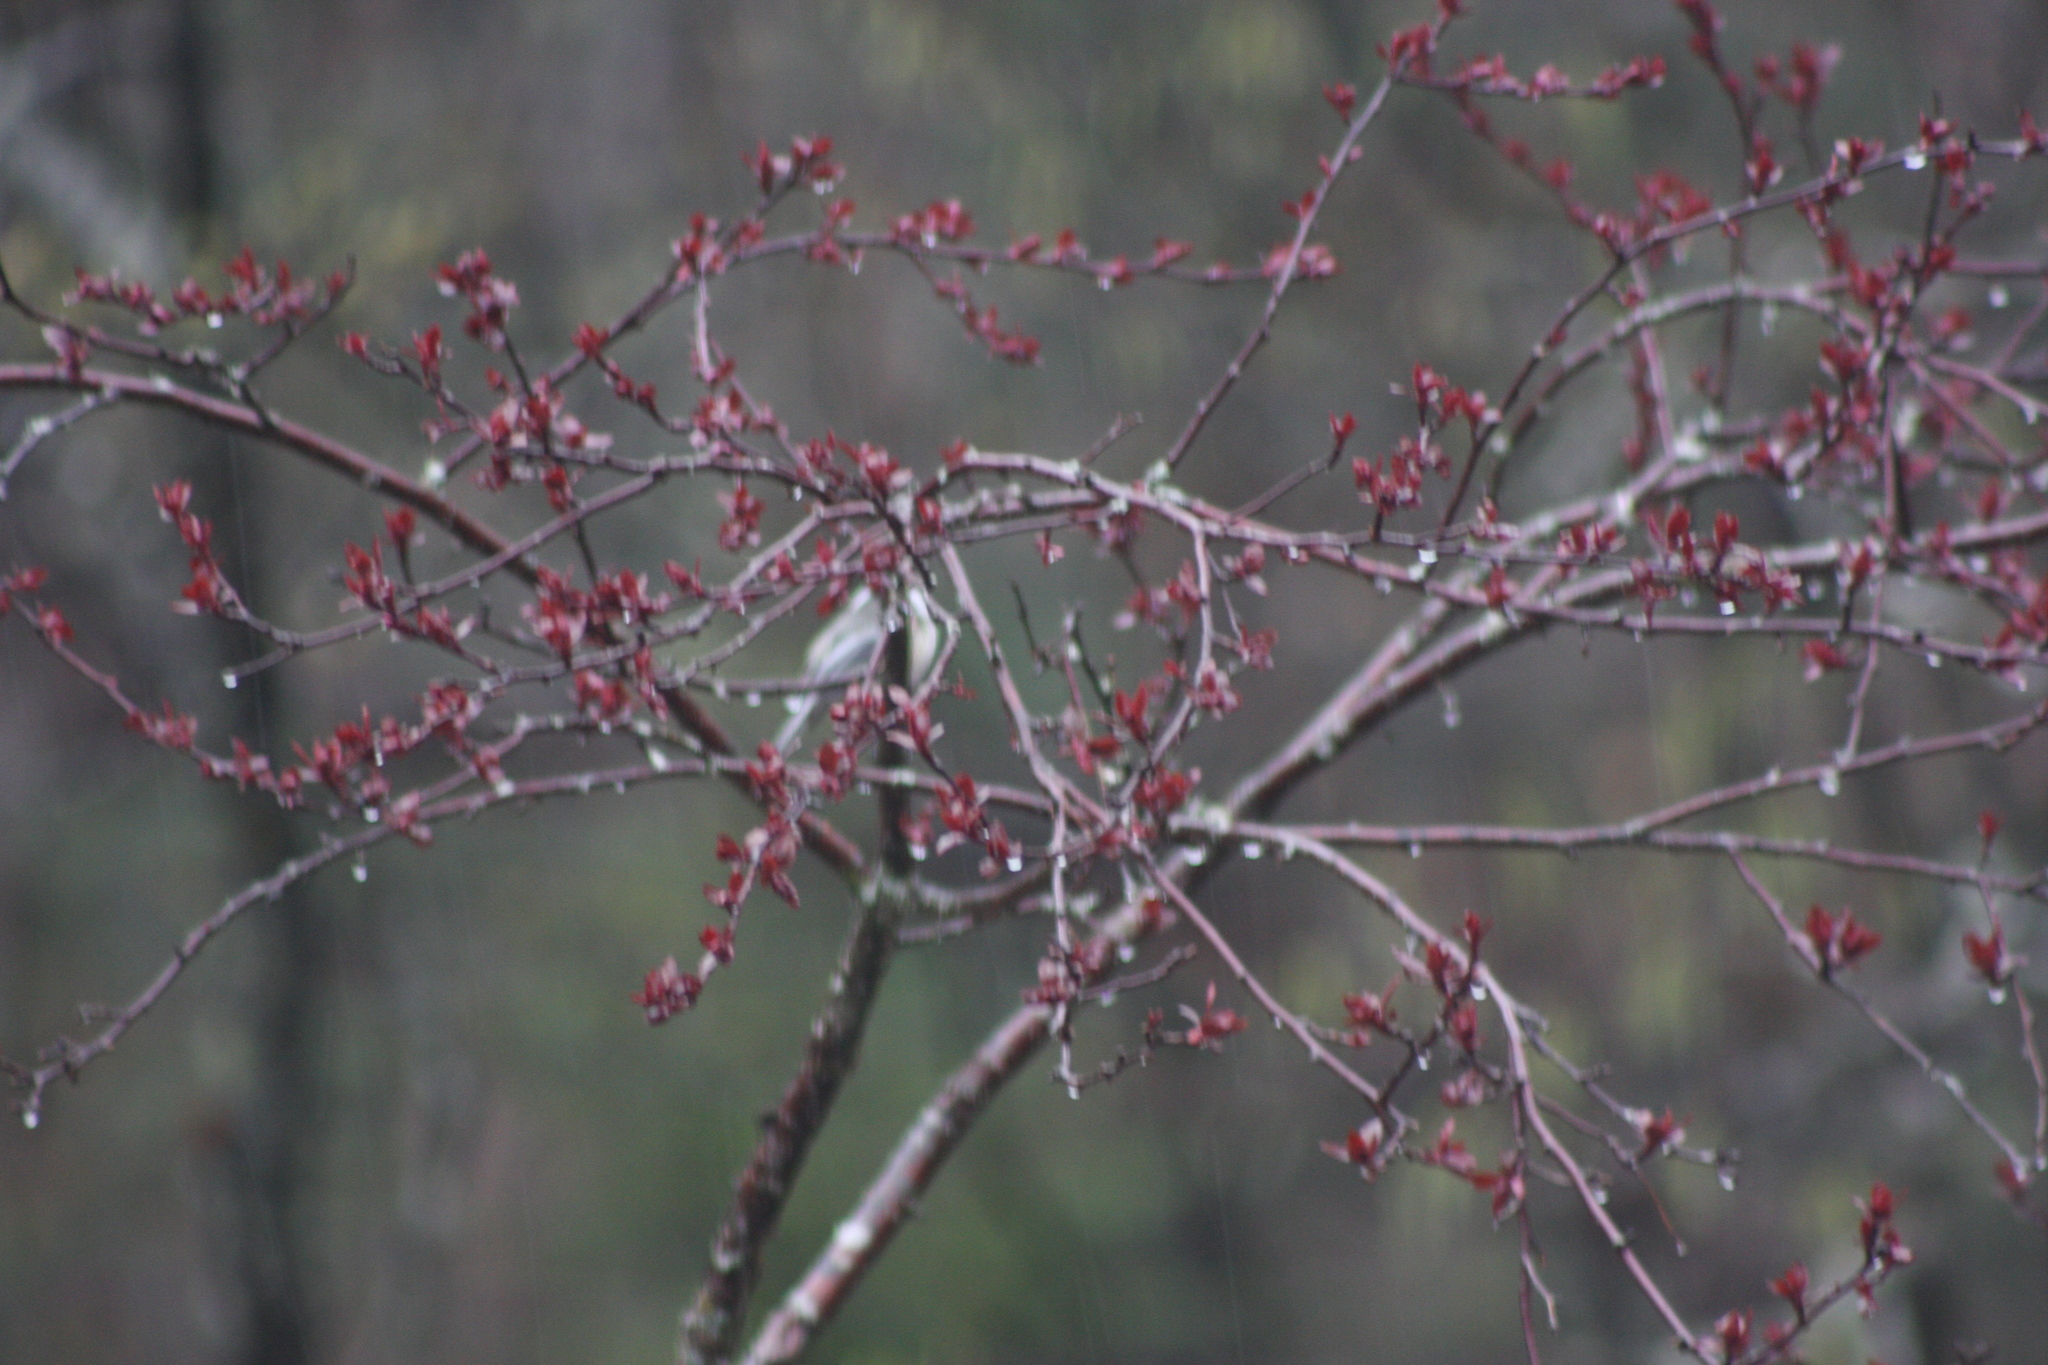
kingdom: Animalia
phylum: Chordata
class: Aves
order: Passeriformes
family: Paridae
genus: Poecile
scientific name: Poecile atricapillus
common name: Black-capped chickadee
